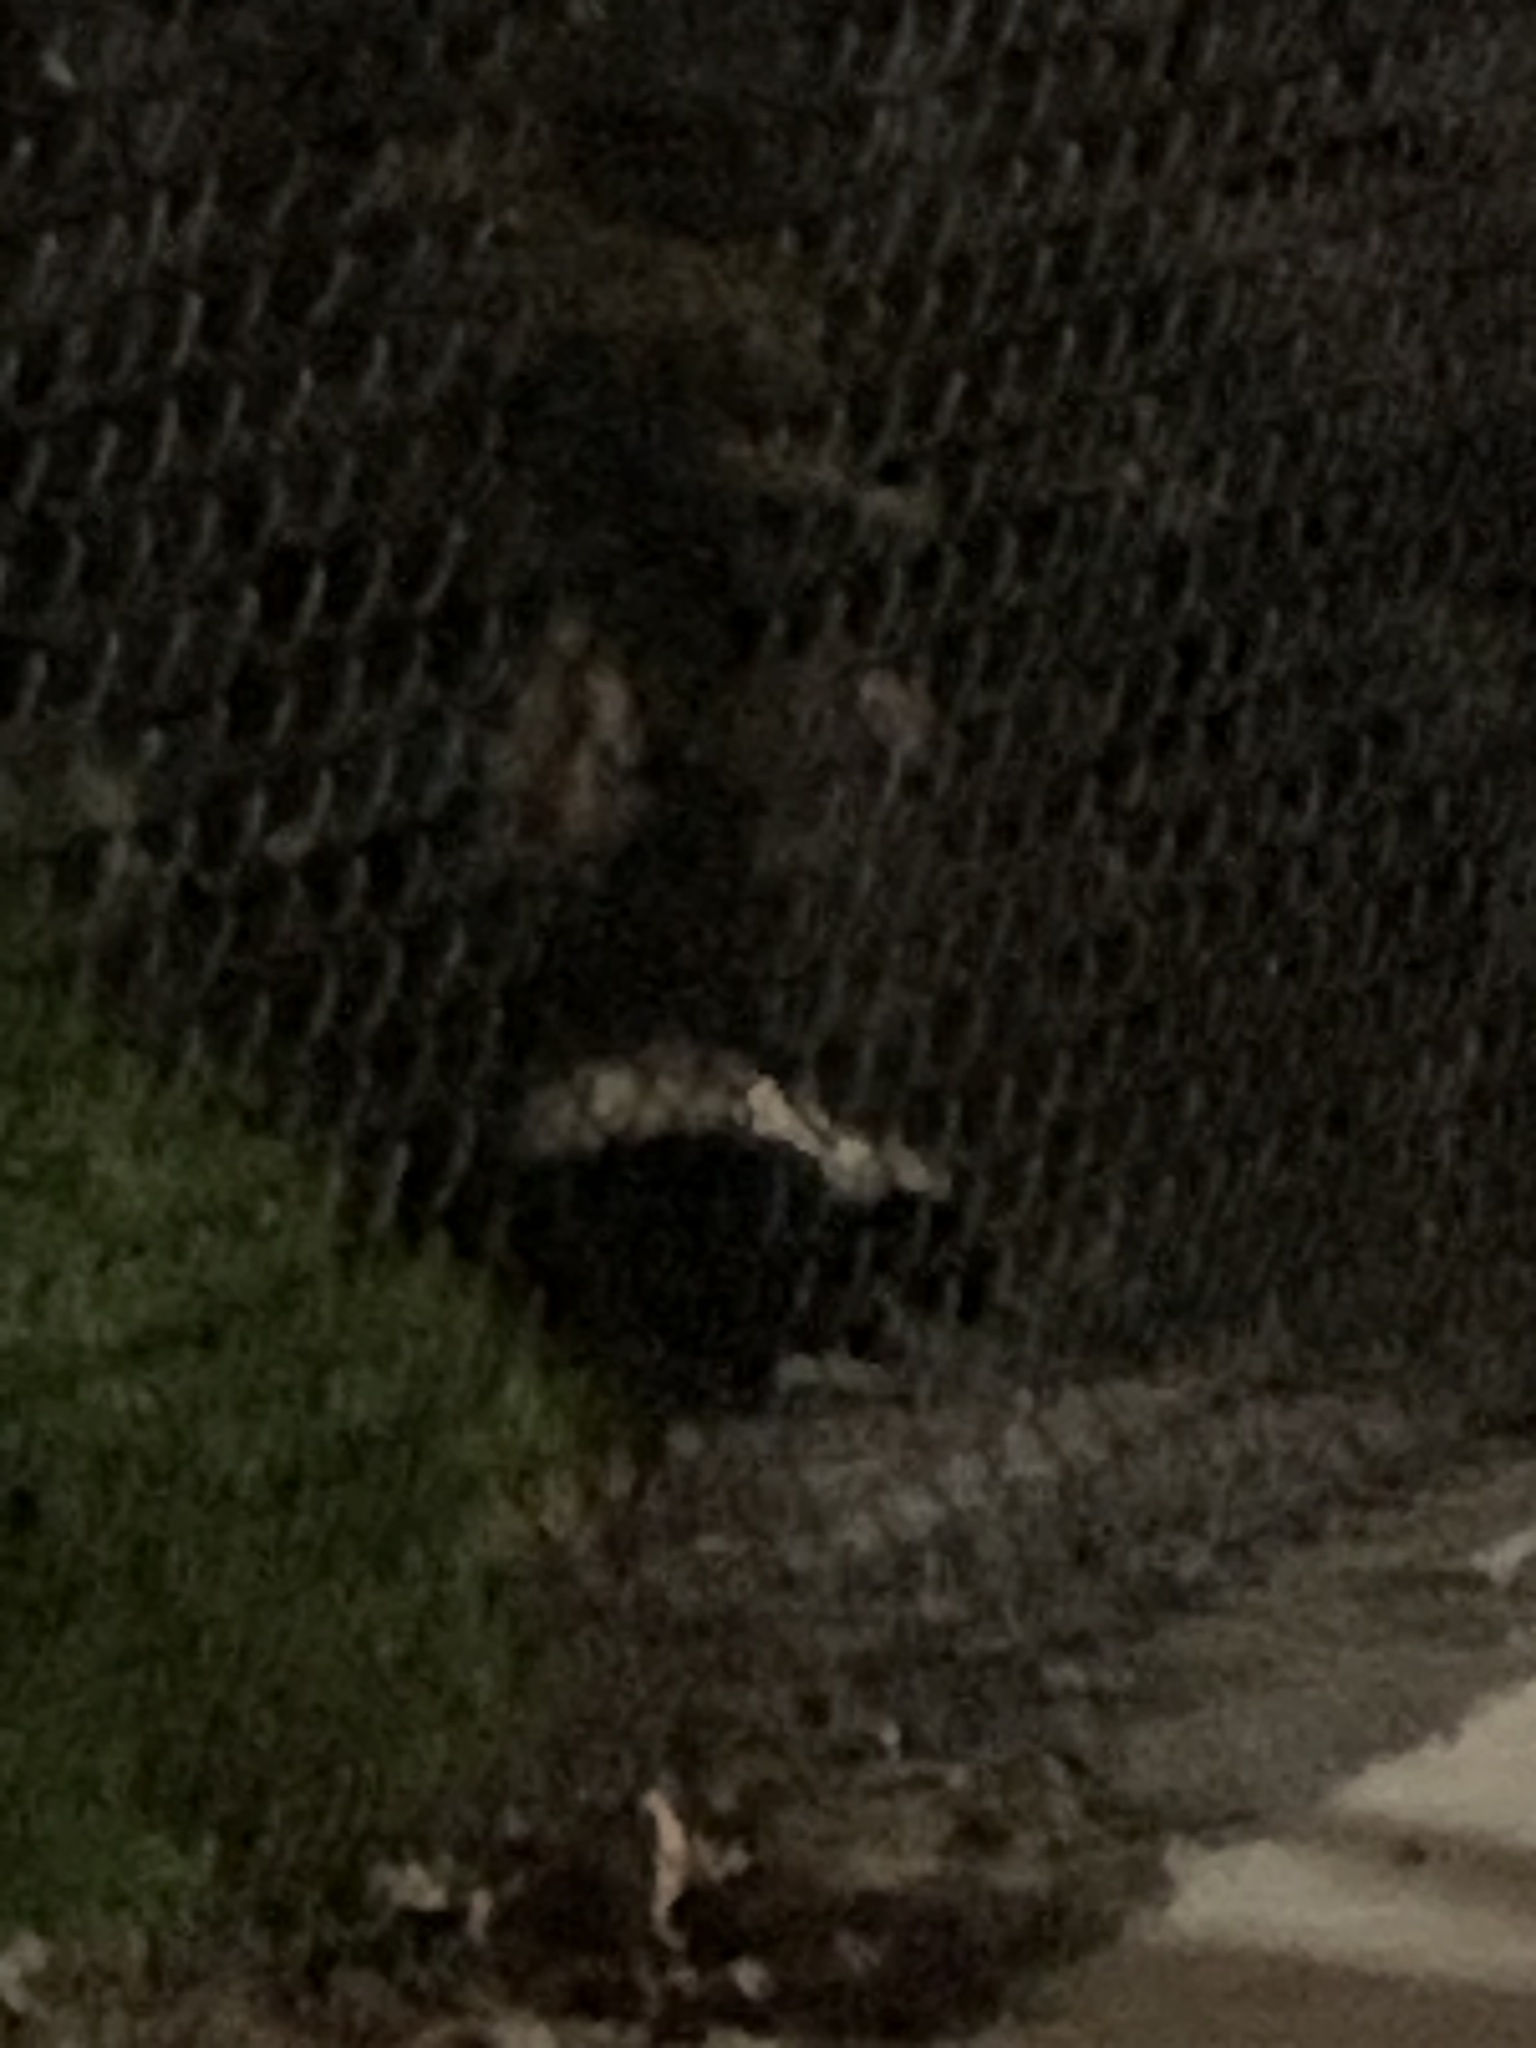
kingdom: Animalia
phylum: Chordata
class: Mammalia
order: Carnivora
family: Mephitidae
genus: Mephitis
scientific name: Mephitis mephitis
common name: Striped skunk
